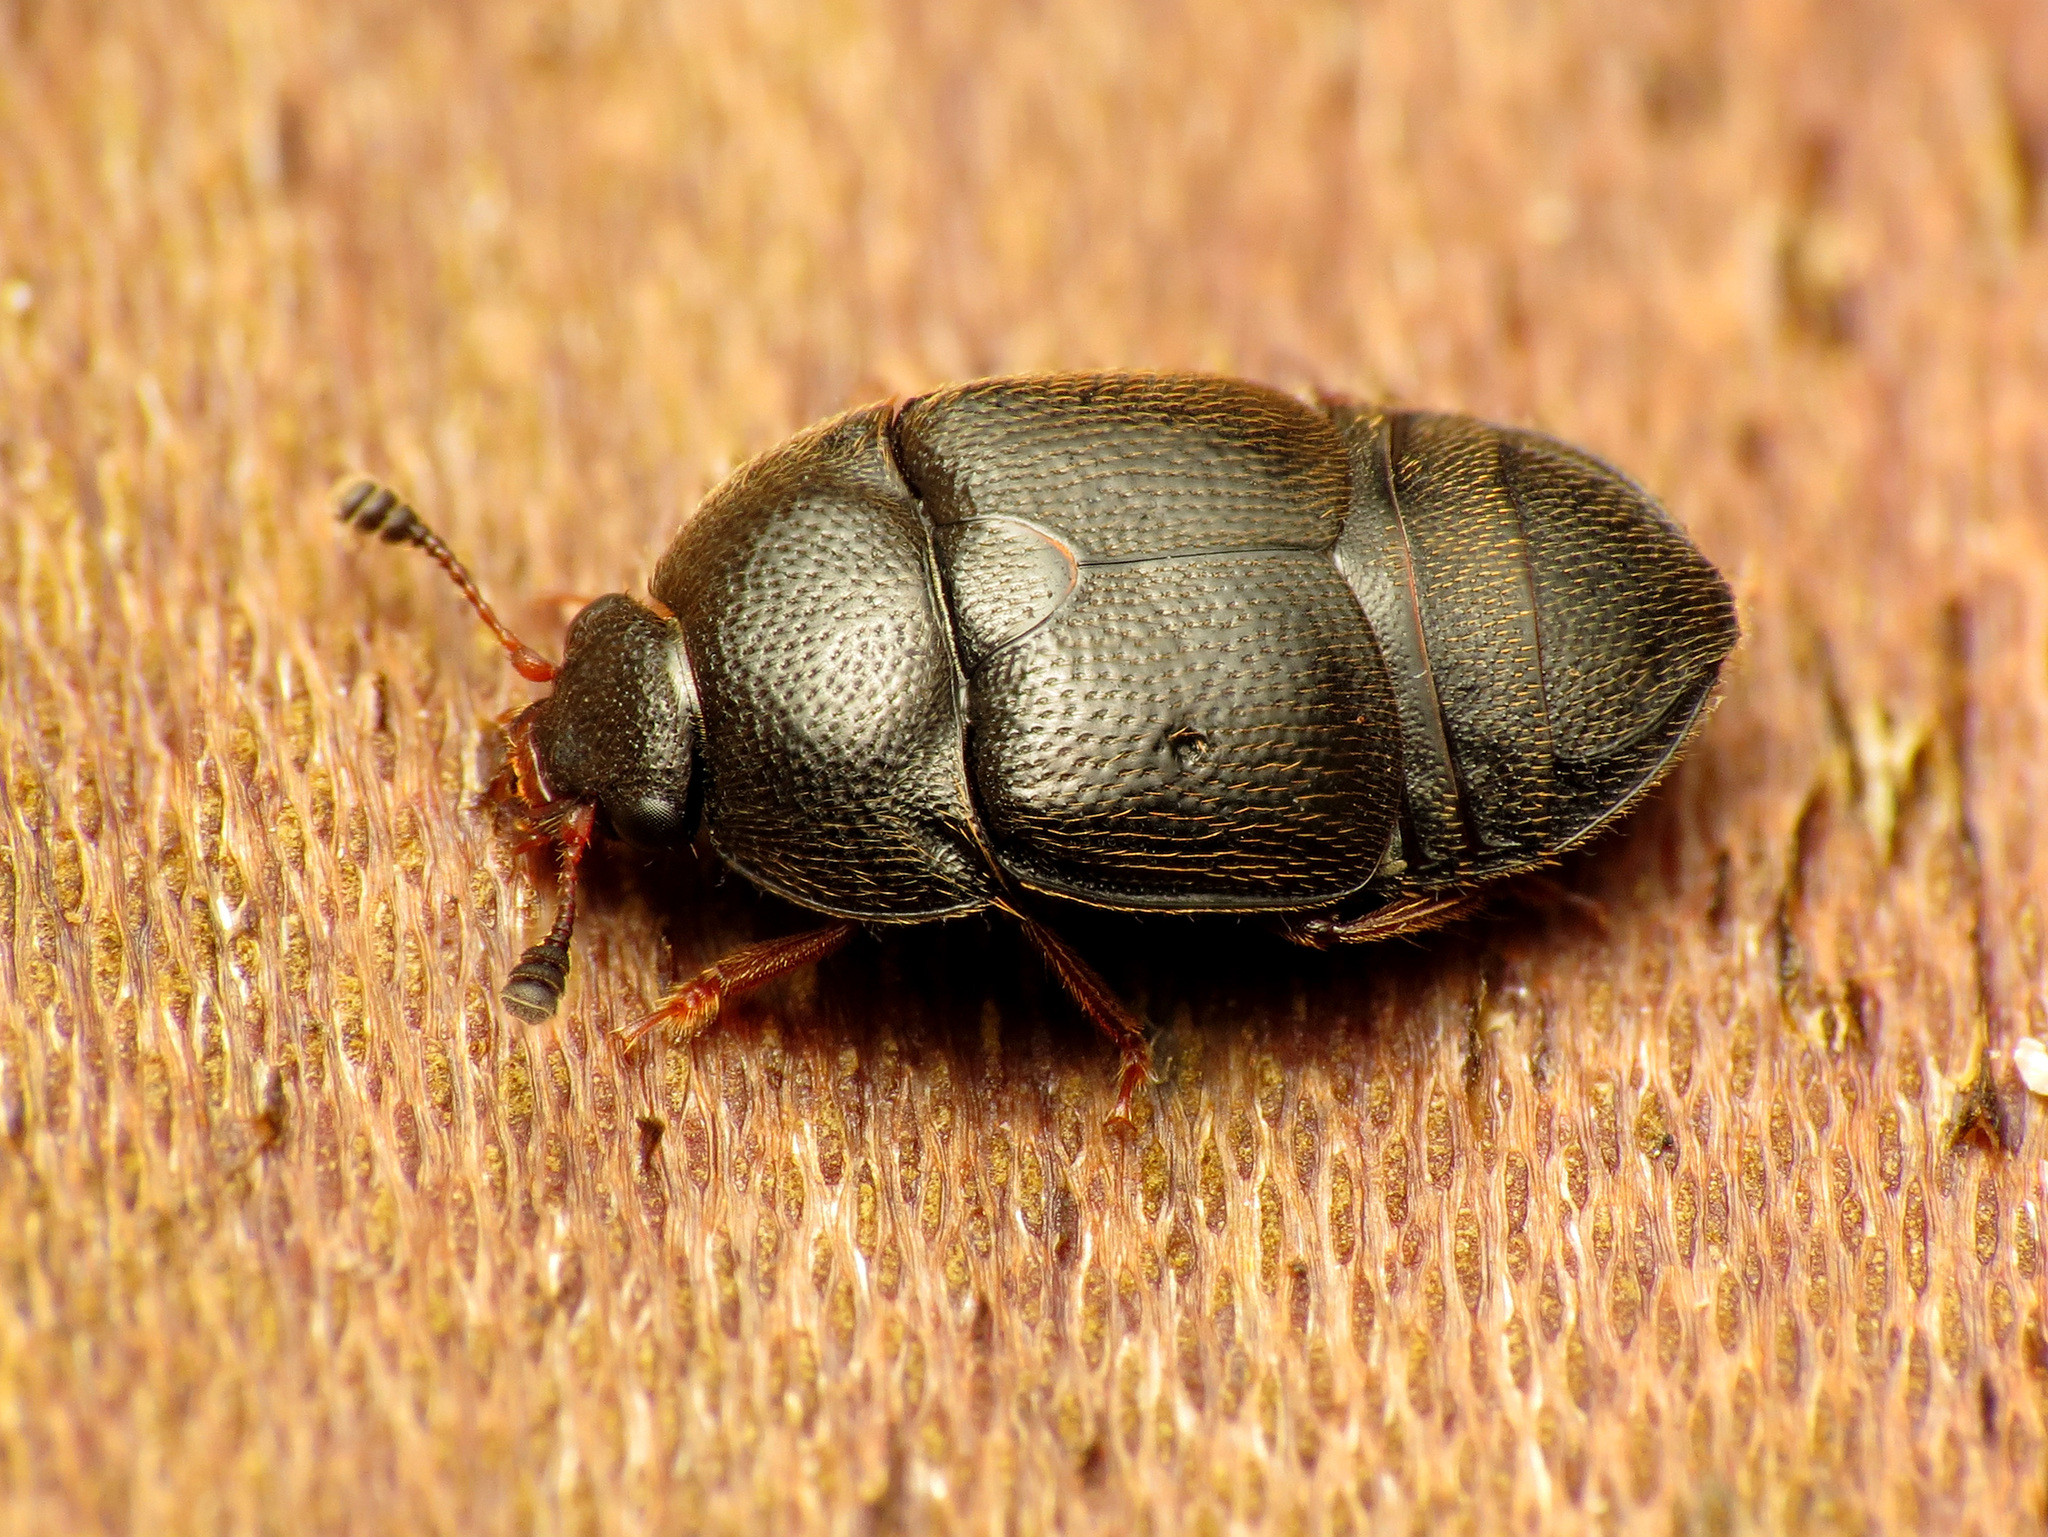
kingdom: Animalia
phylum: Arthropoda
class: Insecta
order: Coleoptera
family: Nitidulidae
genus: Carpophilus
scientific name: Carpophilus niger
